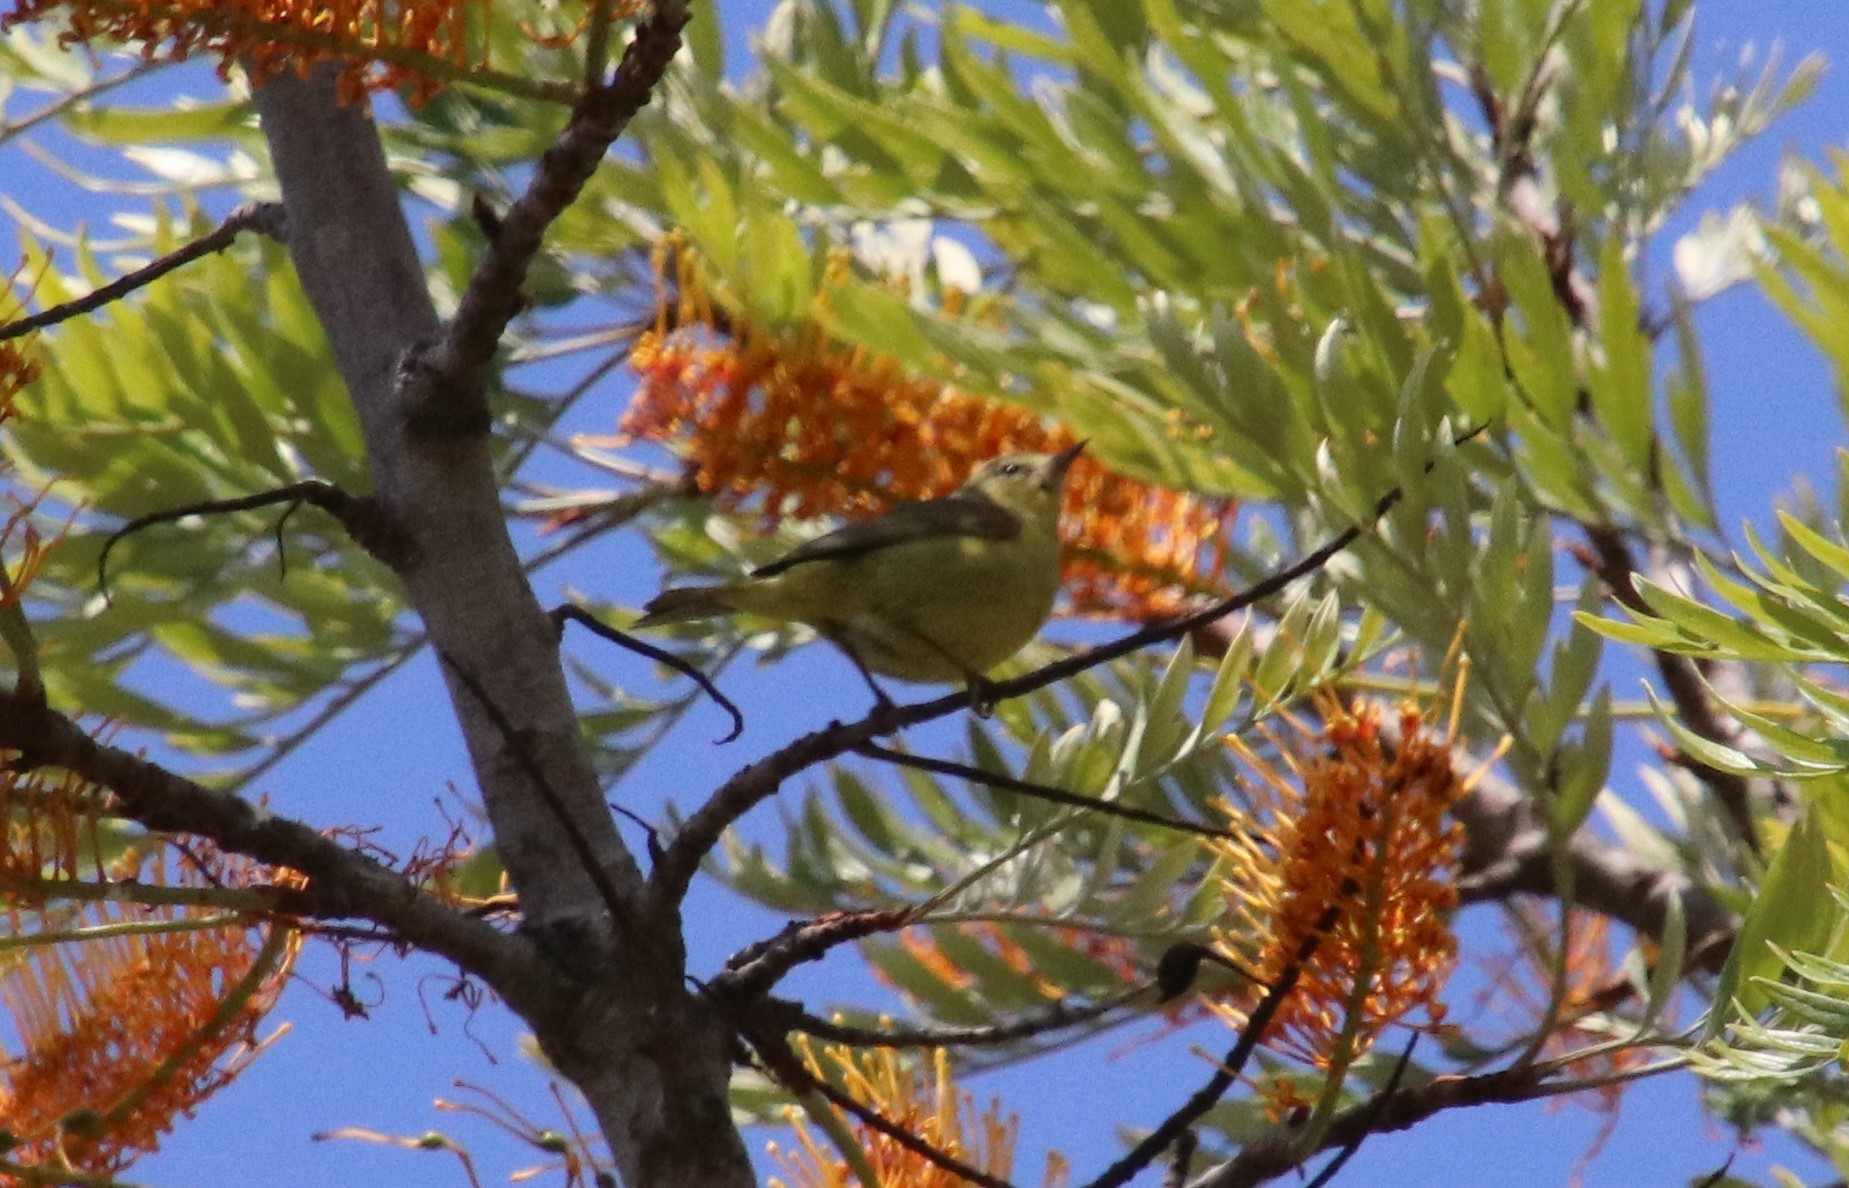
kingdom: Animalia
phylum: Chordata
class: Aves
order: Passeriformes
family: Parulidae
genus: Leiothlypis
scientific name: Leiothlypis celata
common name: Orange-crowned warbler
